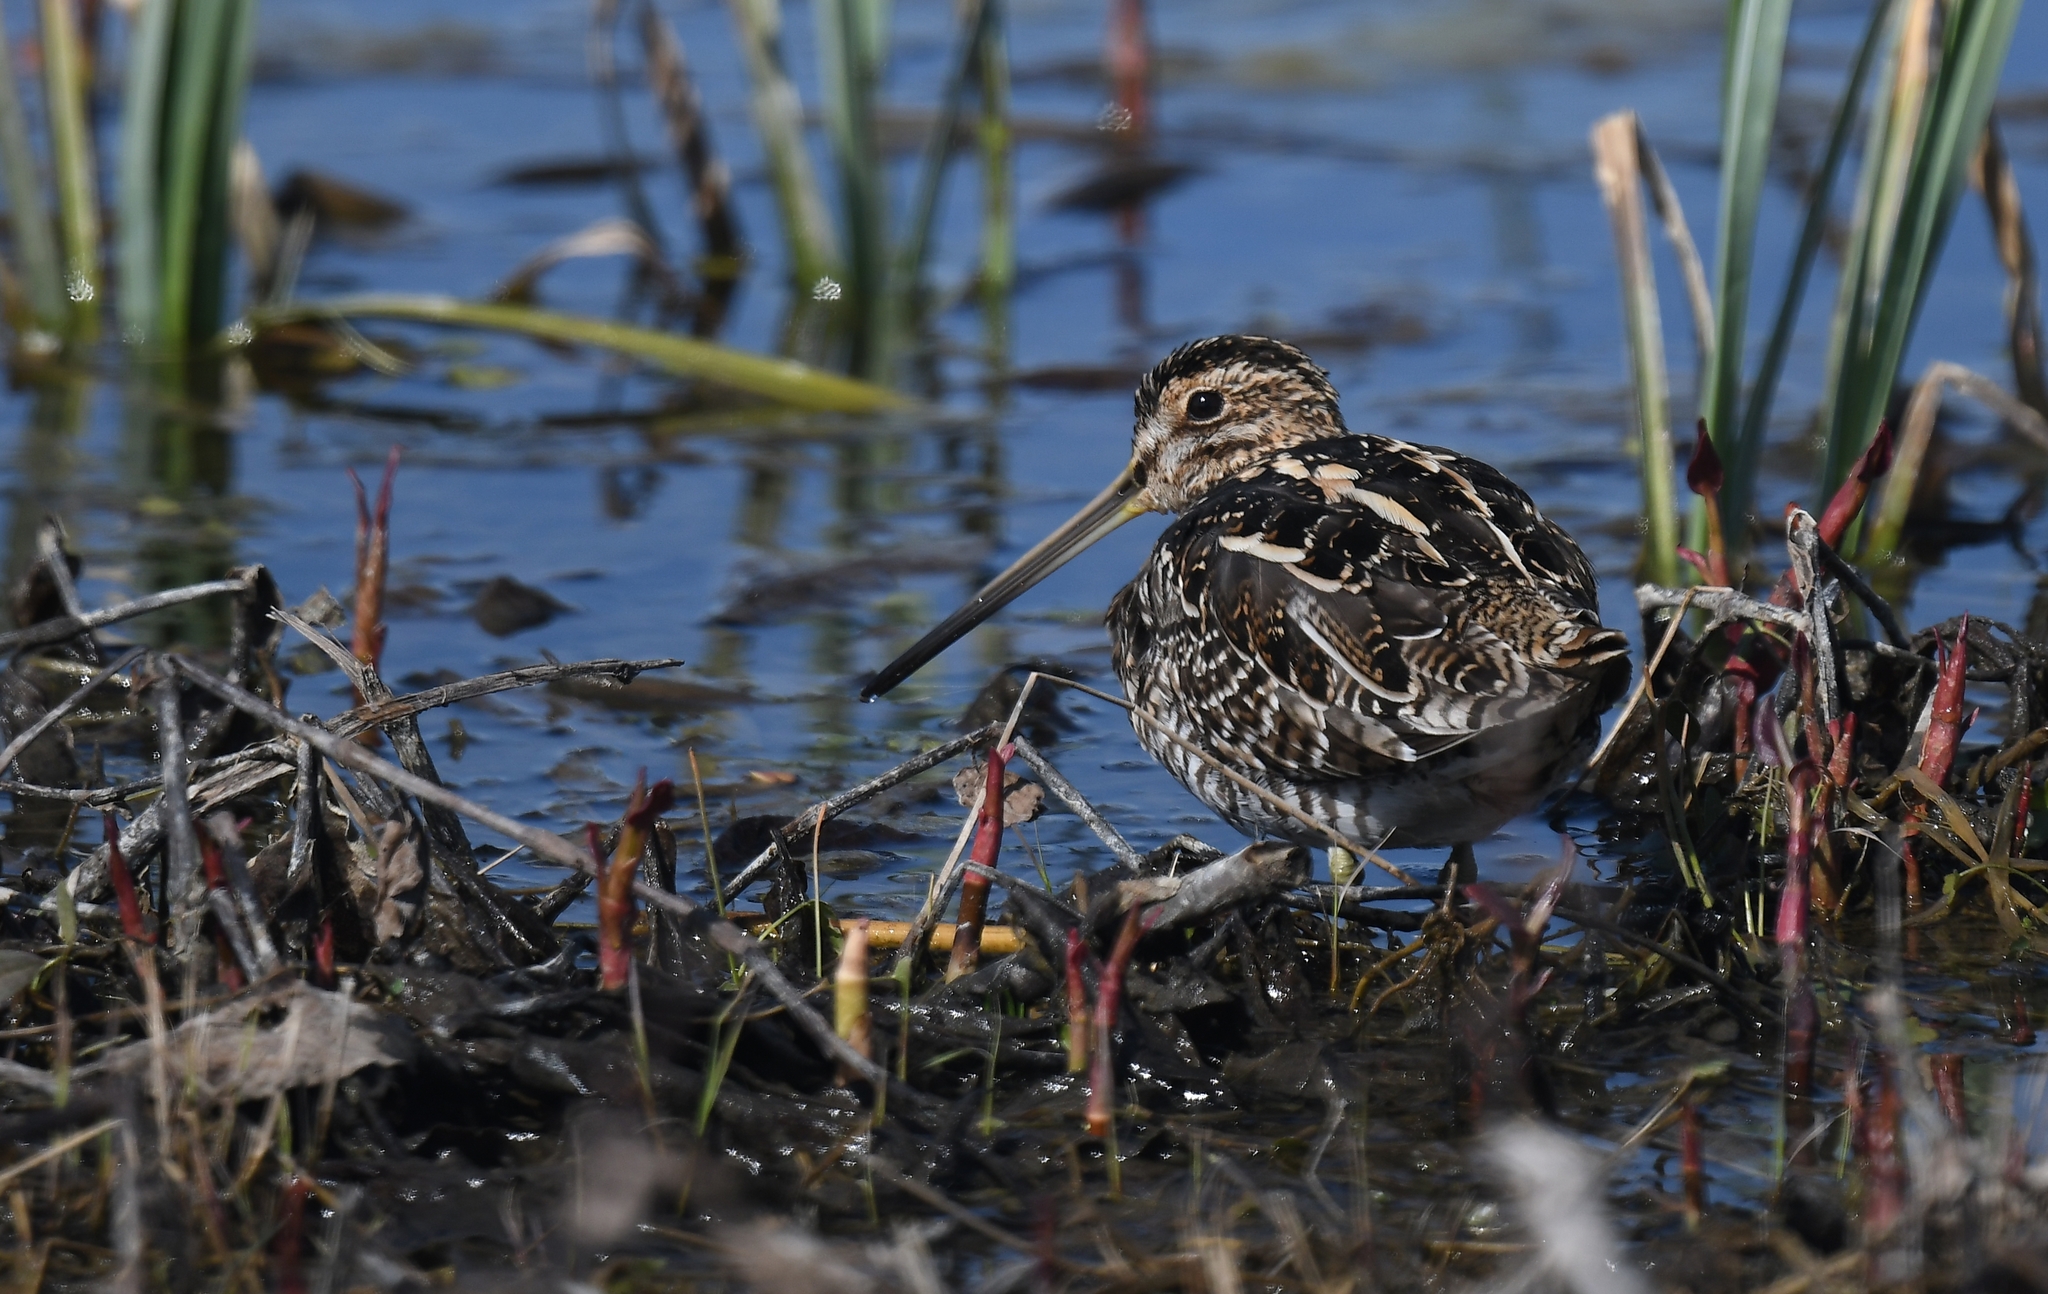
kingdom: Animalia
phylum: Chordata
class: Aves
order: Charadriiformes
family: Scolopacidae
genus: Gallinago
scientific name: Gallinago delicata
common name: Wilson's snipe
